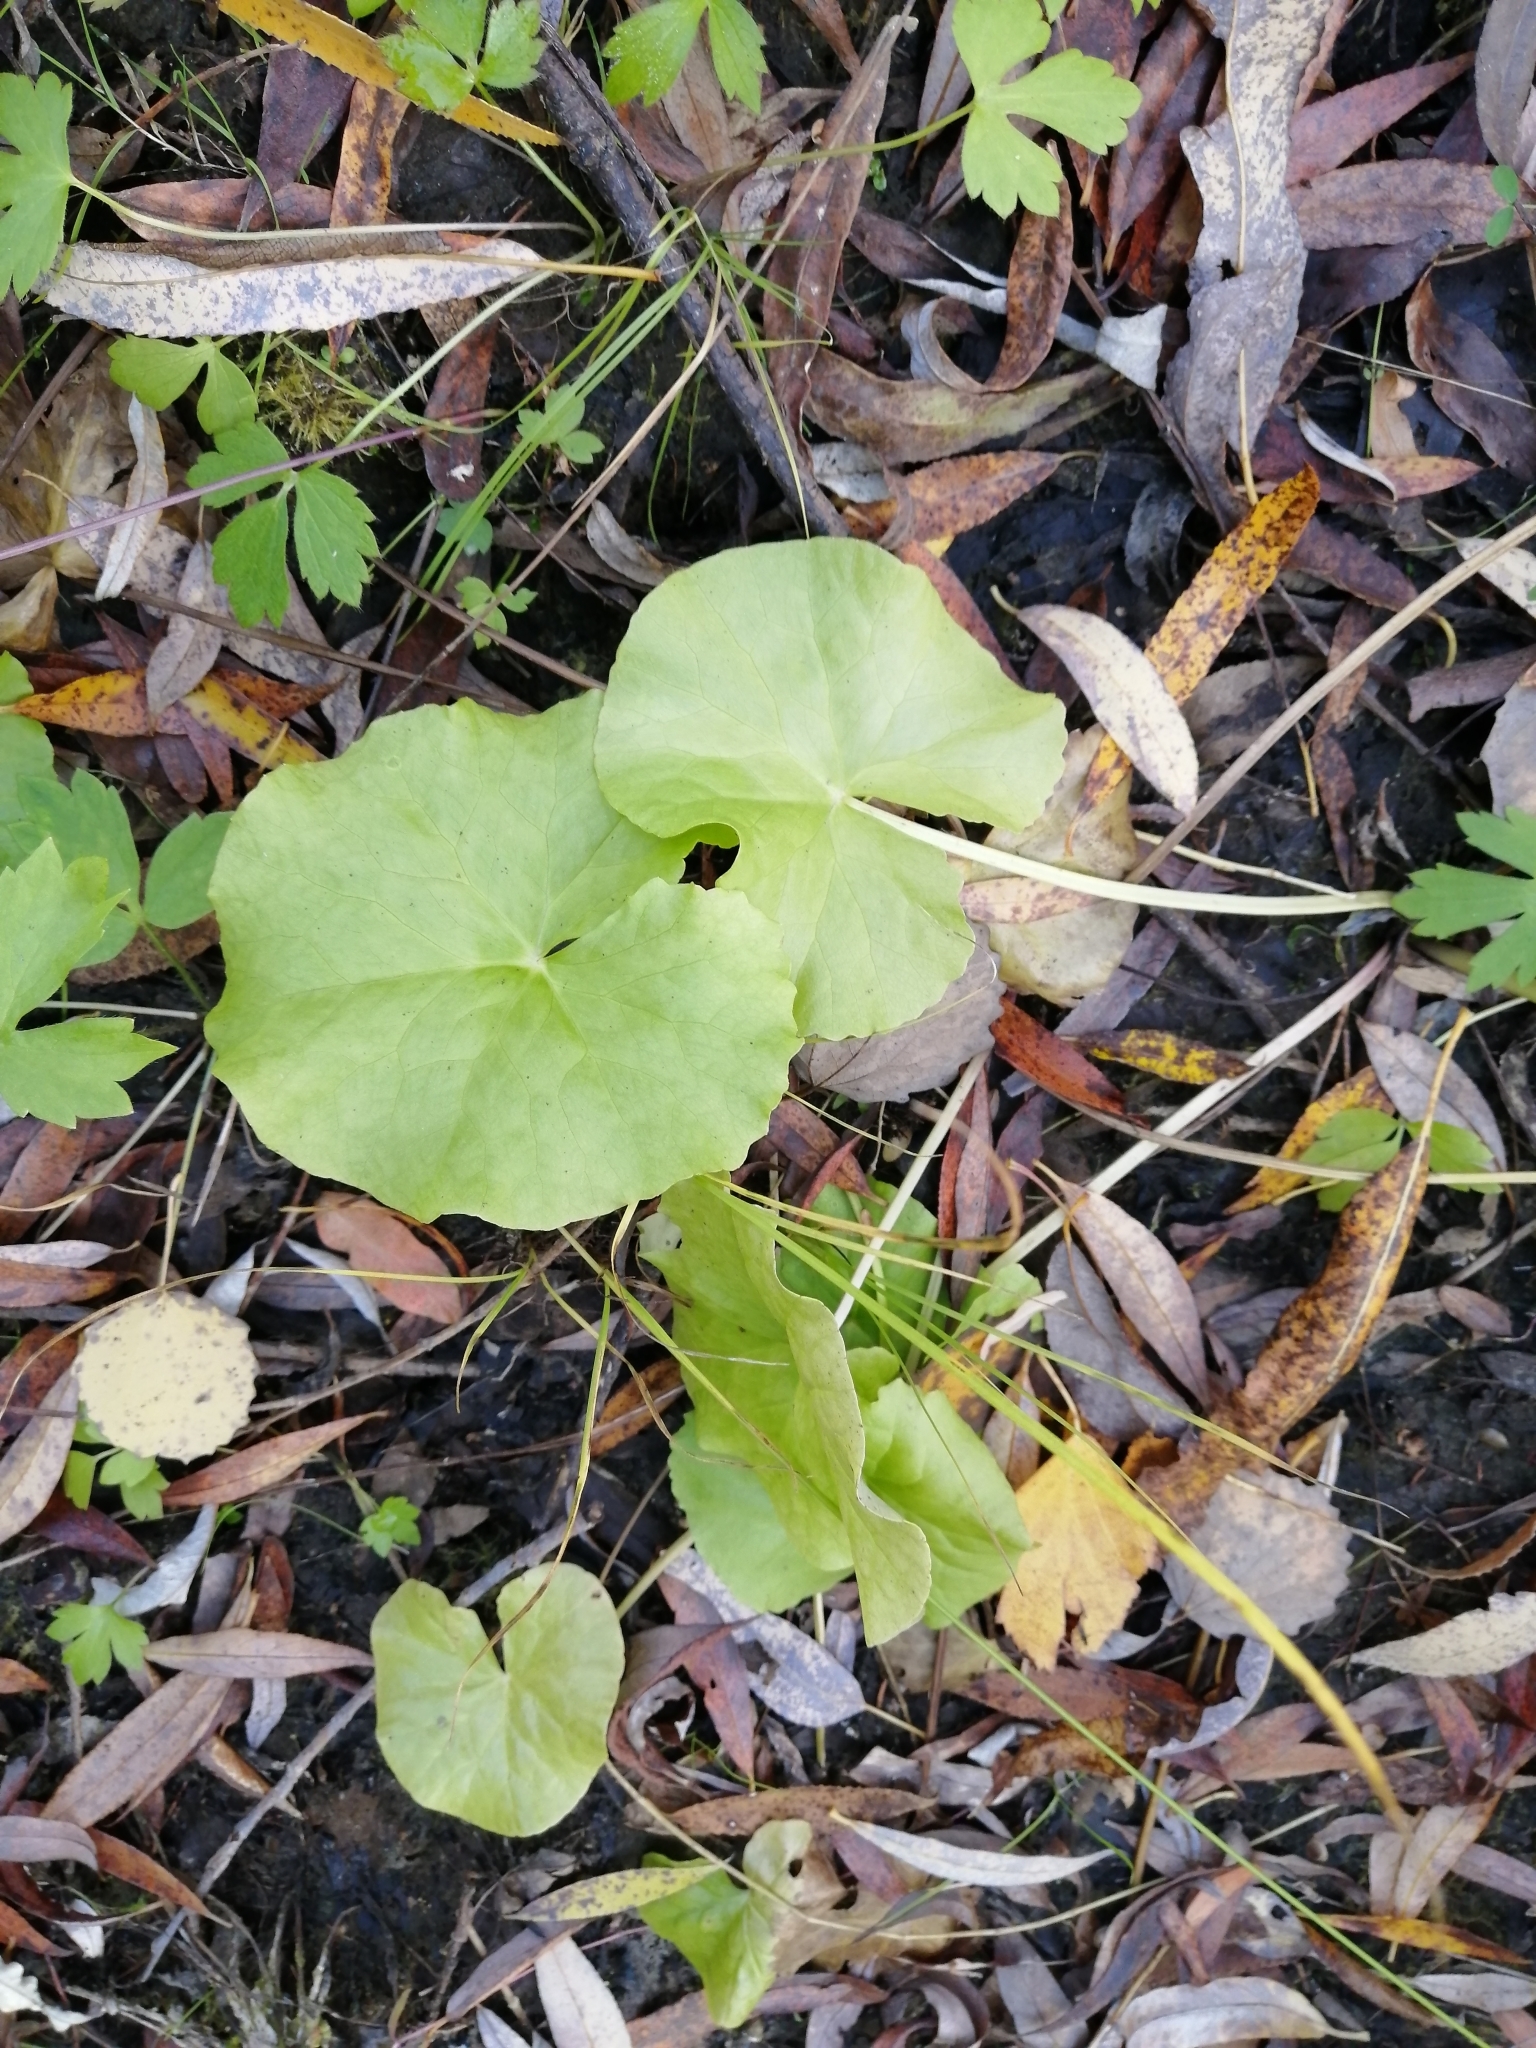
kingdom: Plantae
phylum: Tracheophyta
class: Magnoliopsida
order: Ranunculales
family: Ranunculaceae
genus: Caltha
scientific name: Caltha palustris
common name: Marsh marigold
